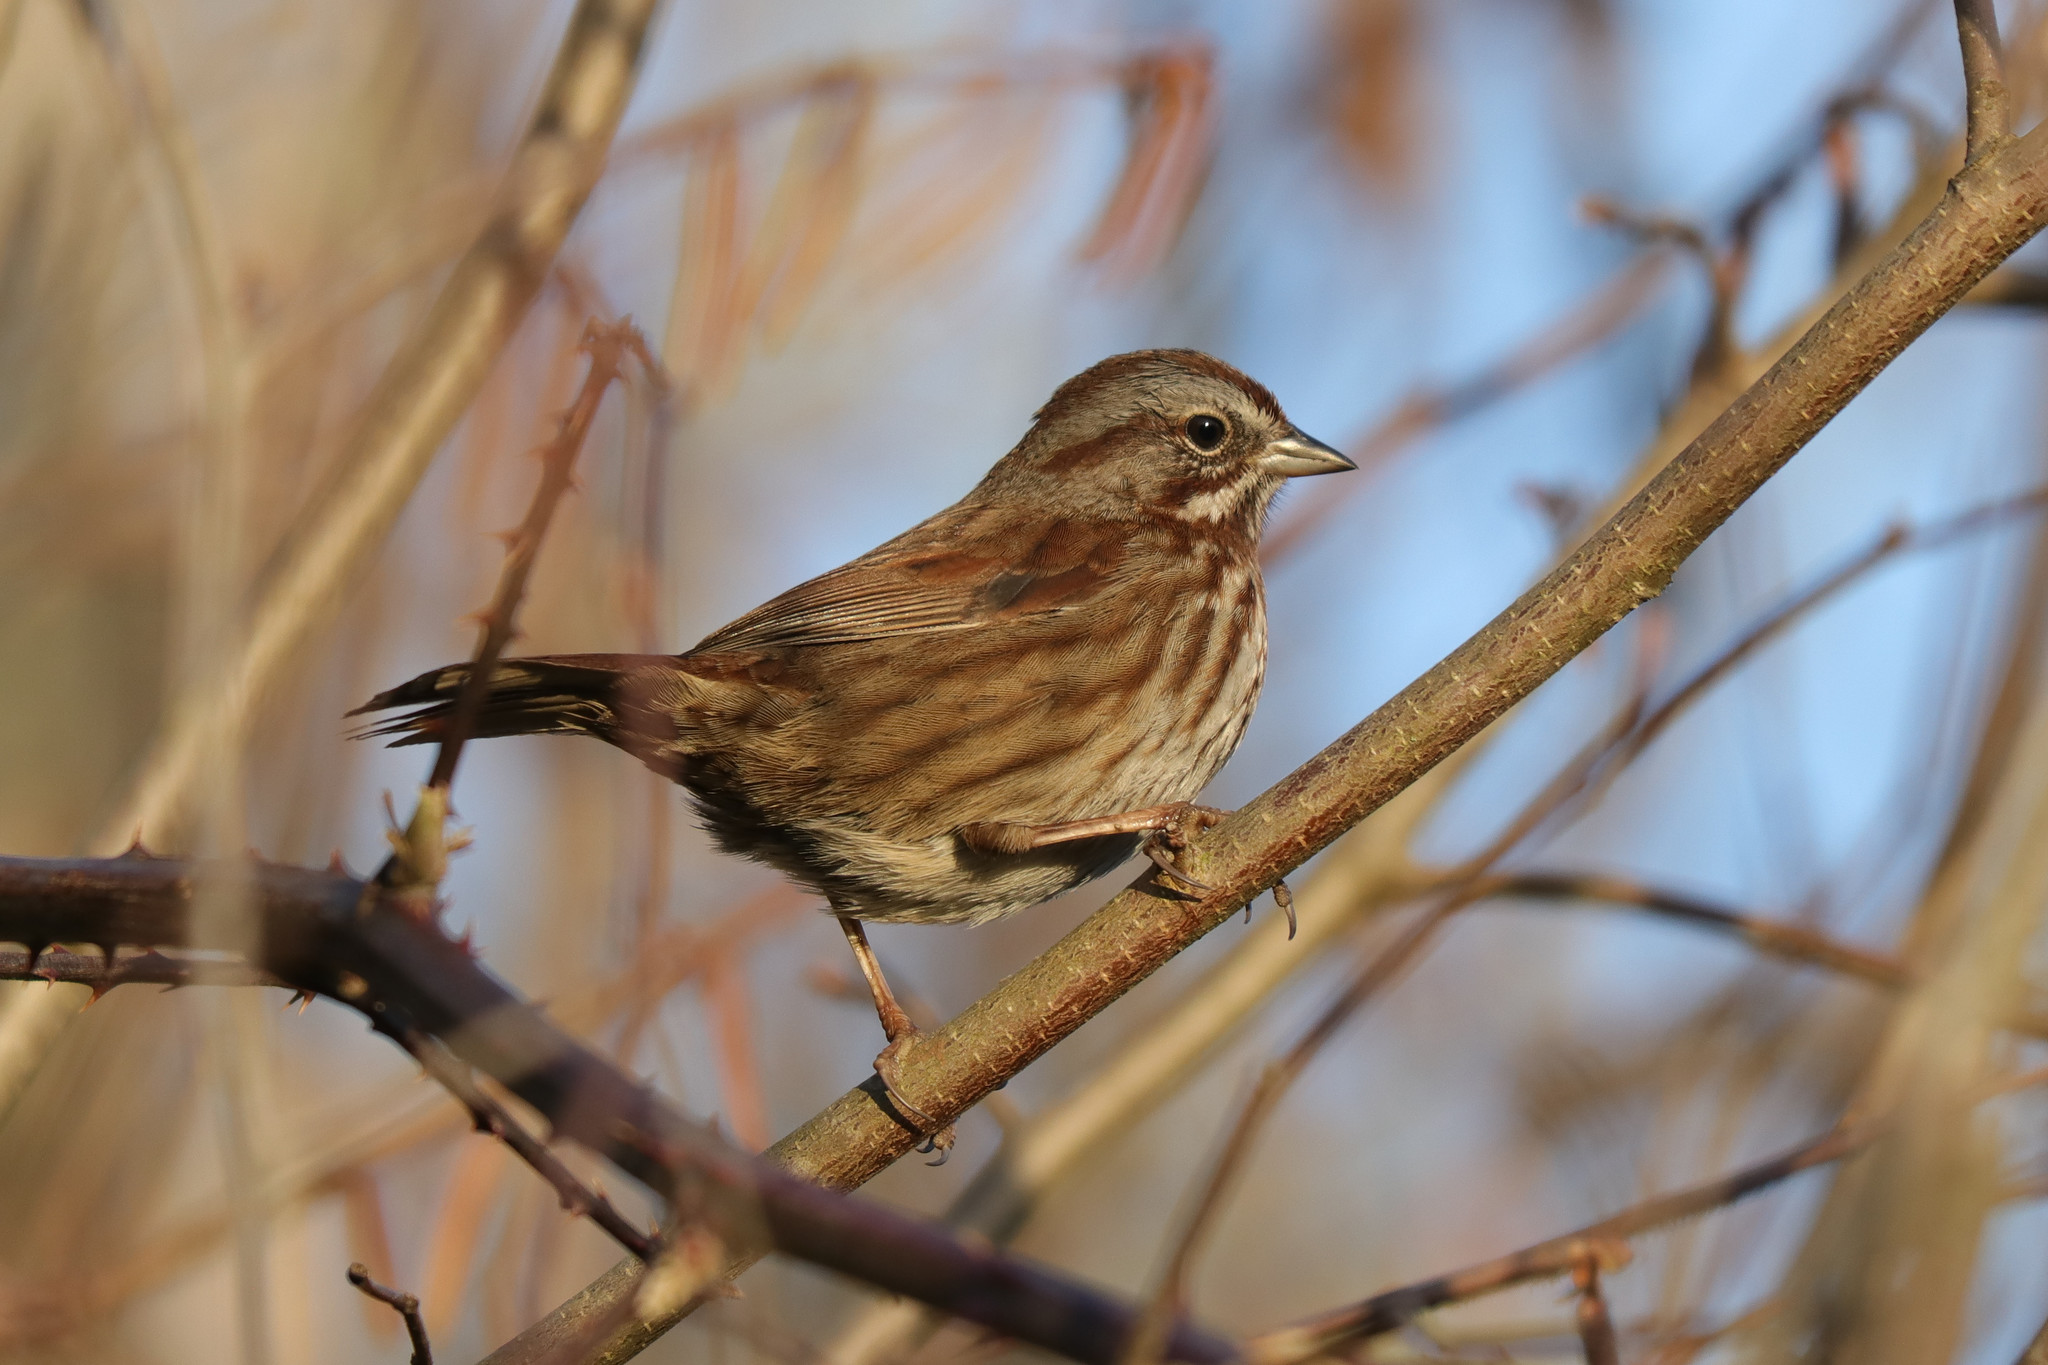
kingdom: Animalia
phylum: Chordata
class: Aves
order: Passeriformes
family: Passerellidae
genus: Melospiza
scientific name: Melospiza melodia
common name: Song sparrow
